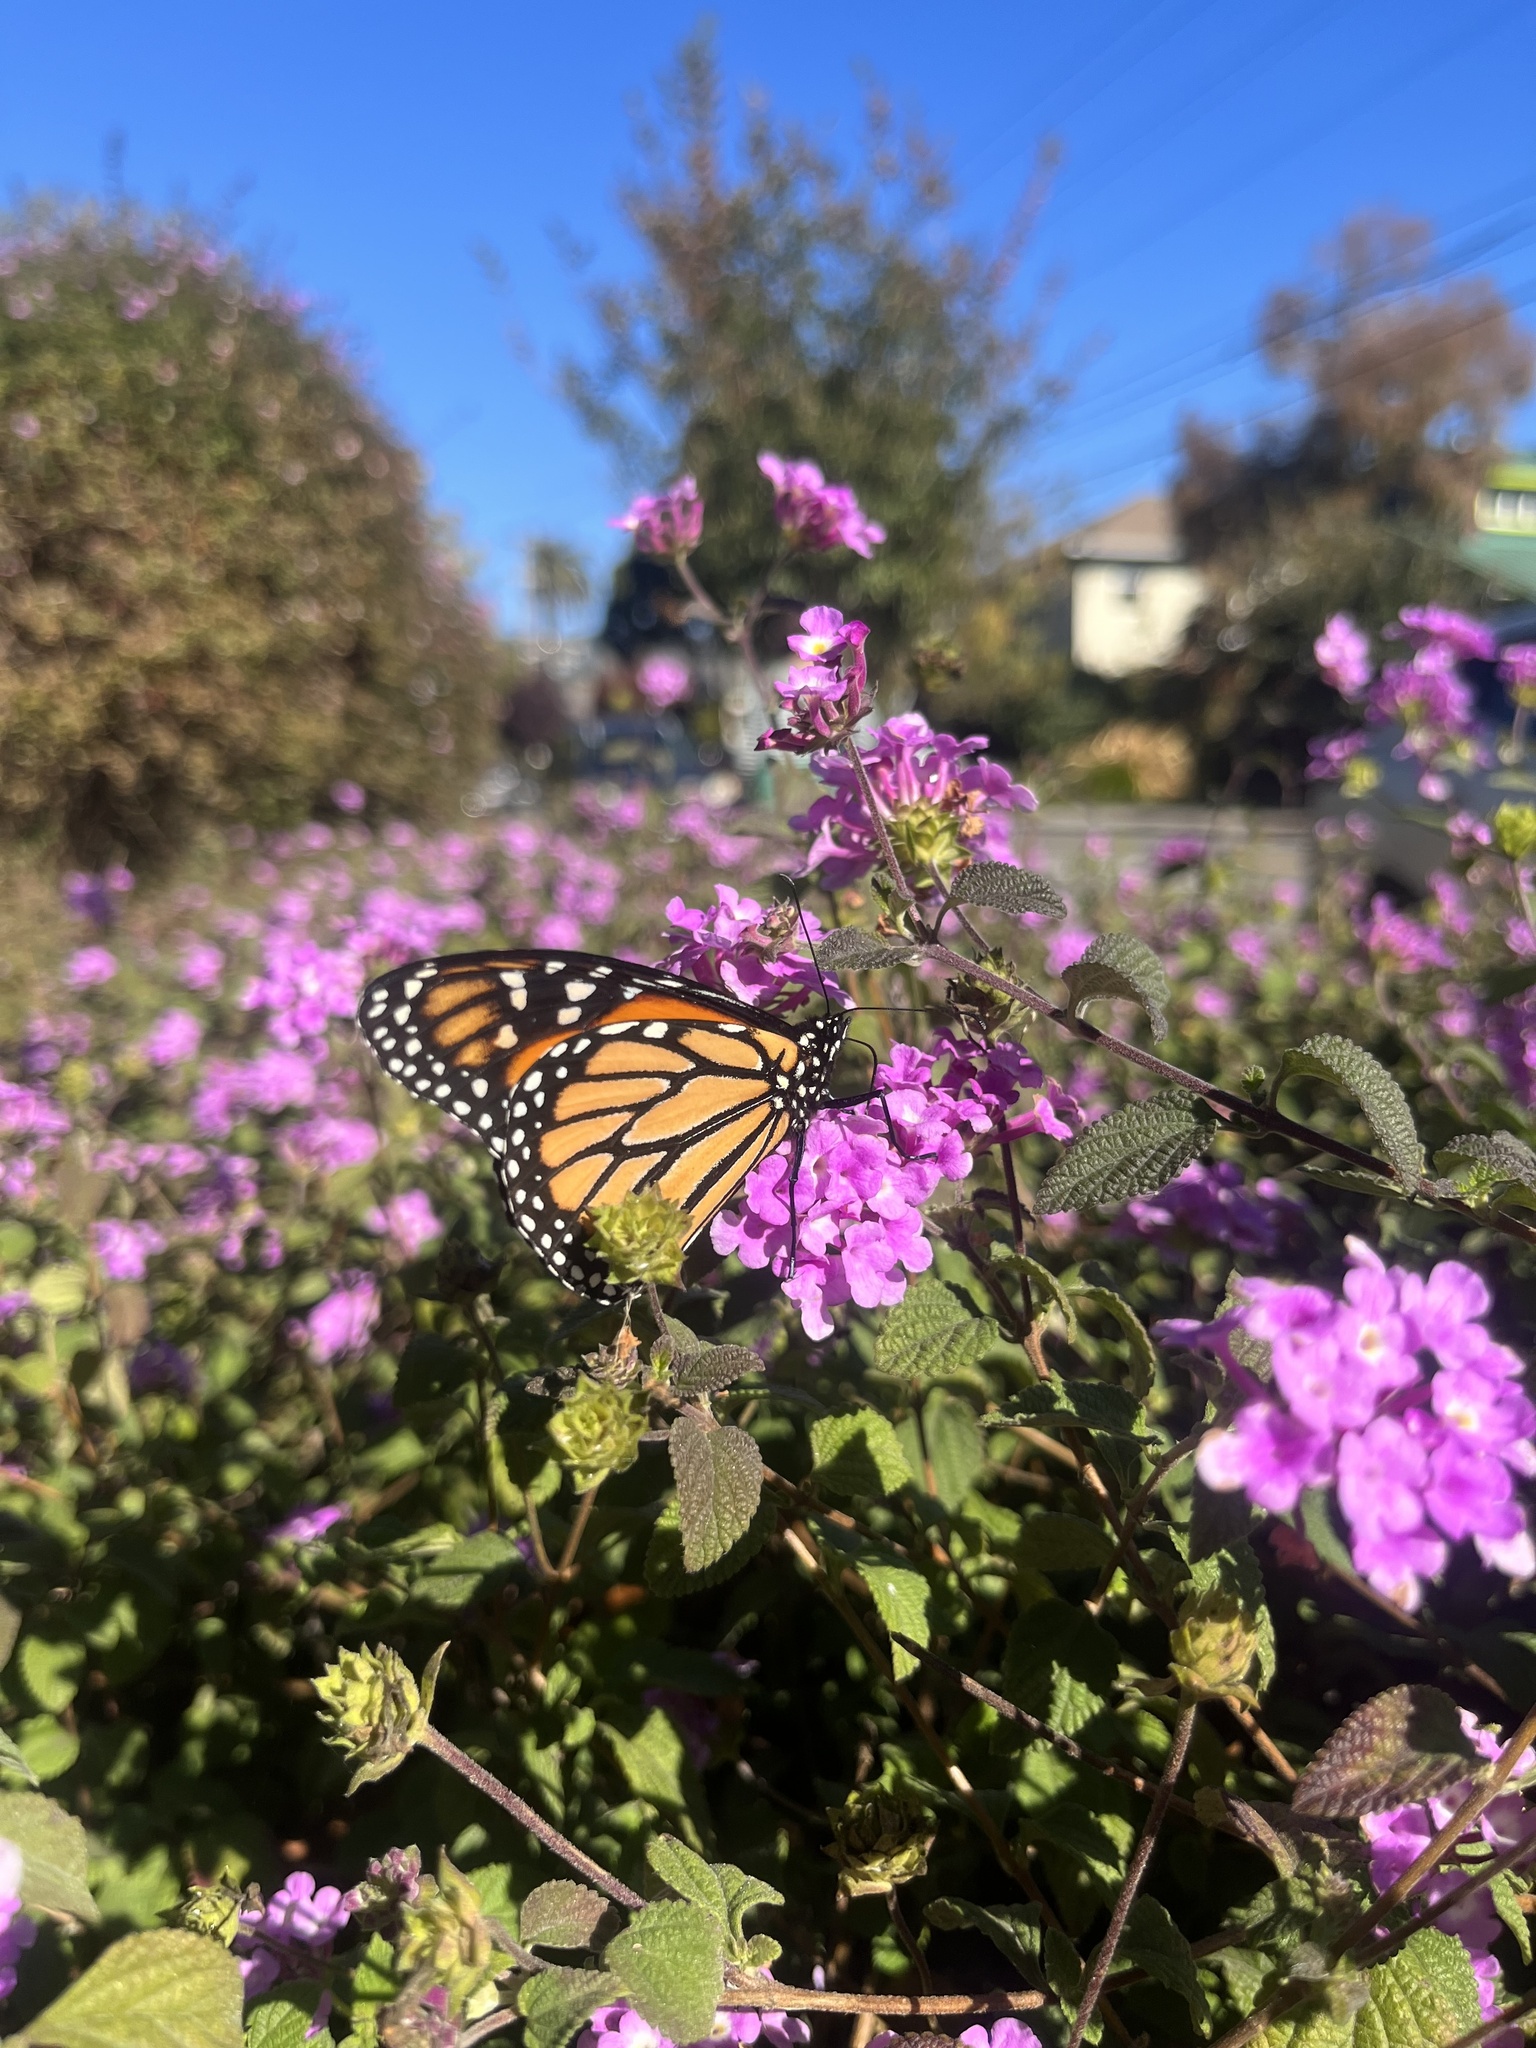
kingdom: Animalia
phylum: Arthropoda
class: Insecta
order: Lepidoptera
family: Nymphalidae
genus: Danaus
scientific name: Danaus plexippus
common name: Monarch
